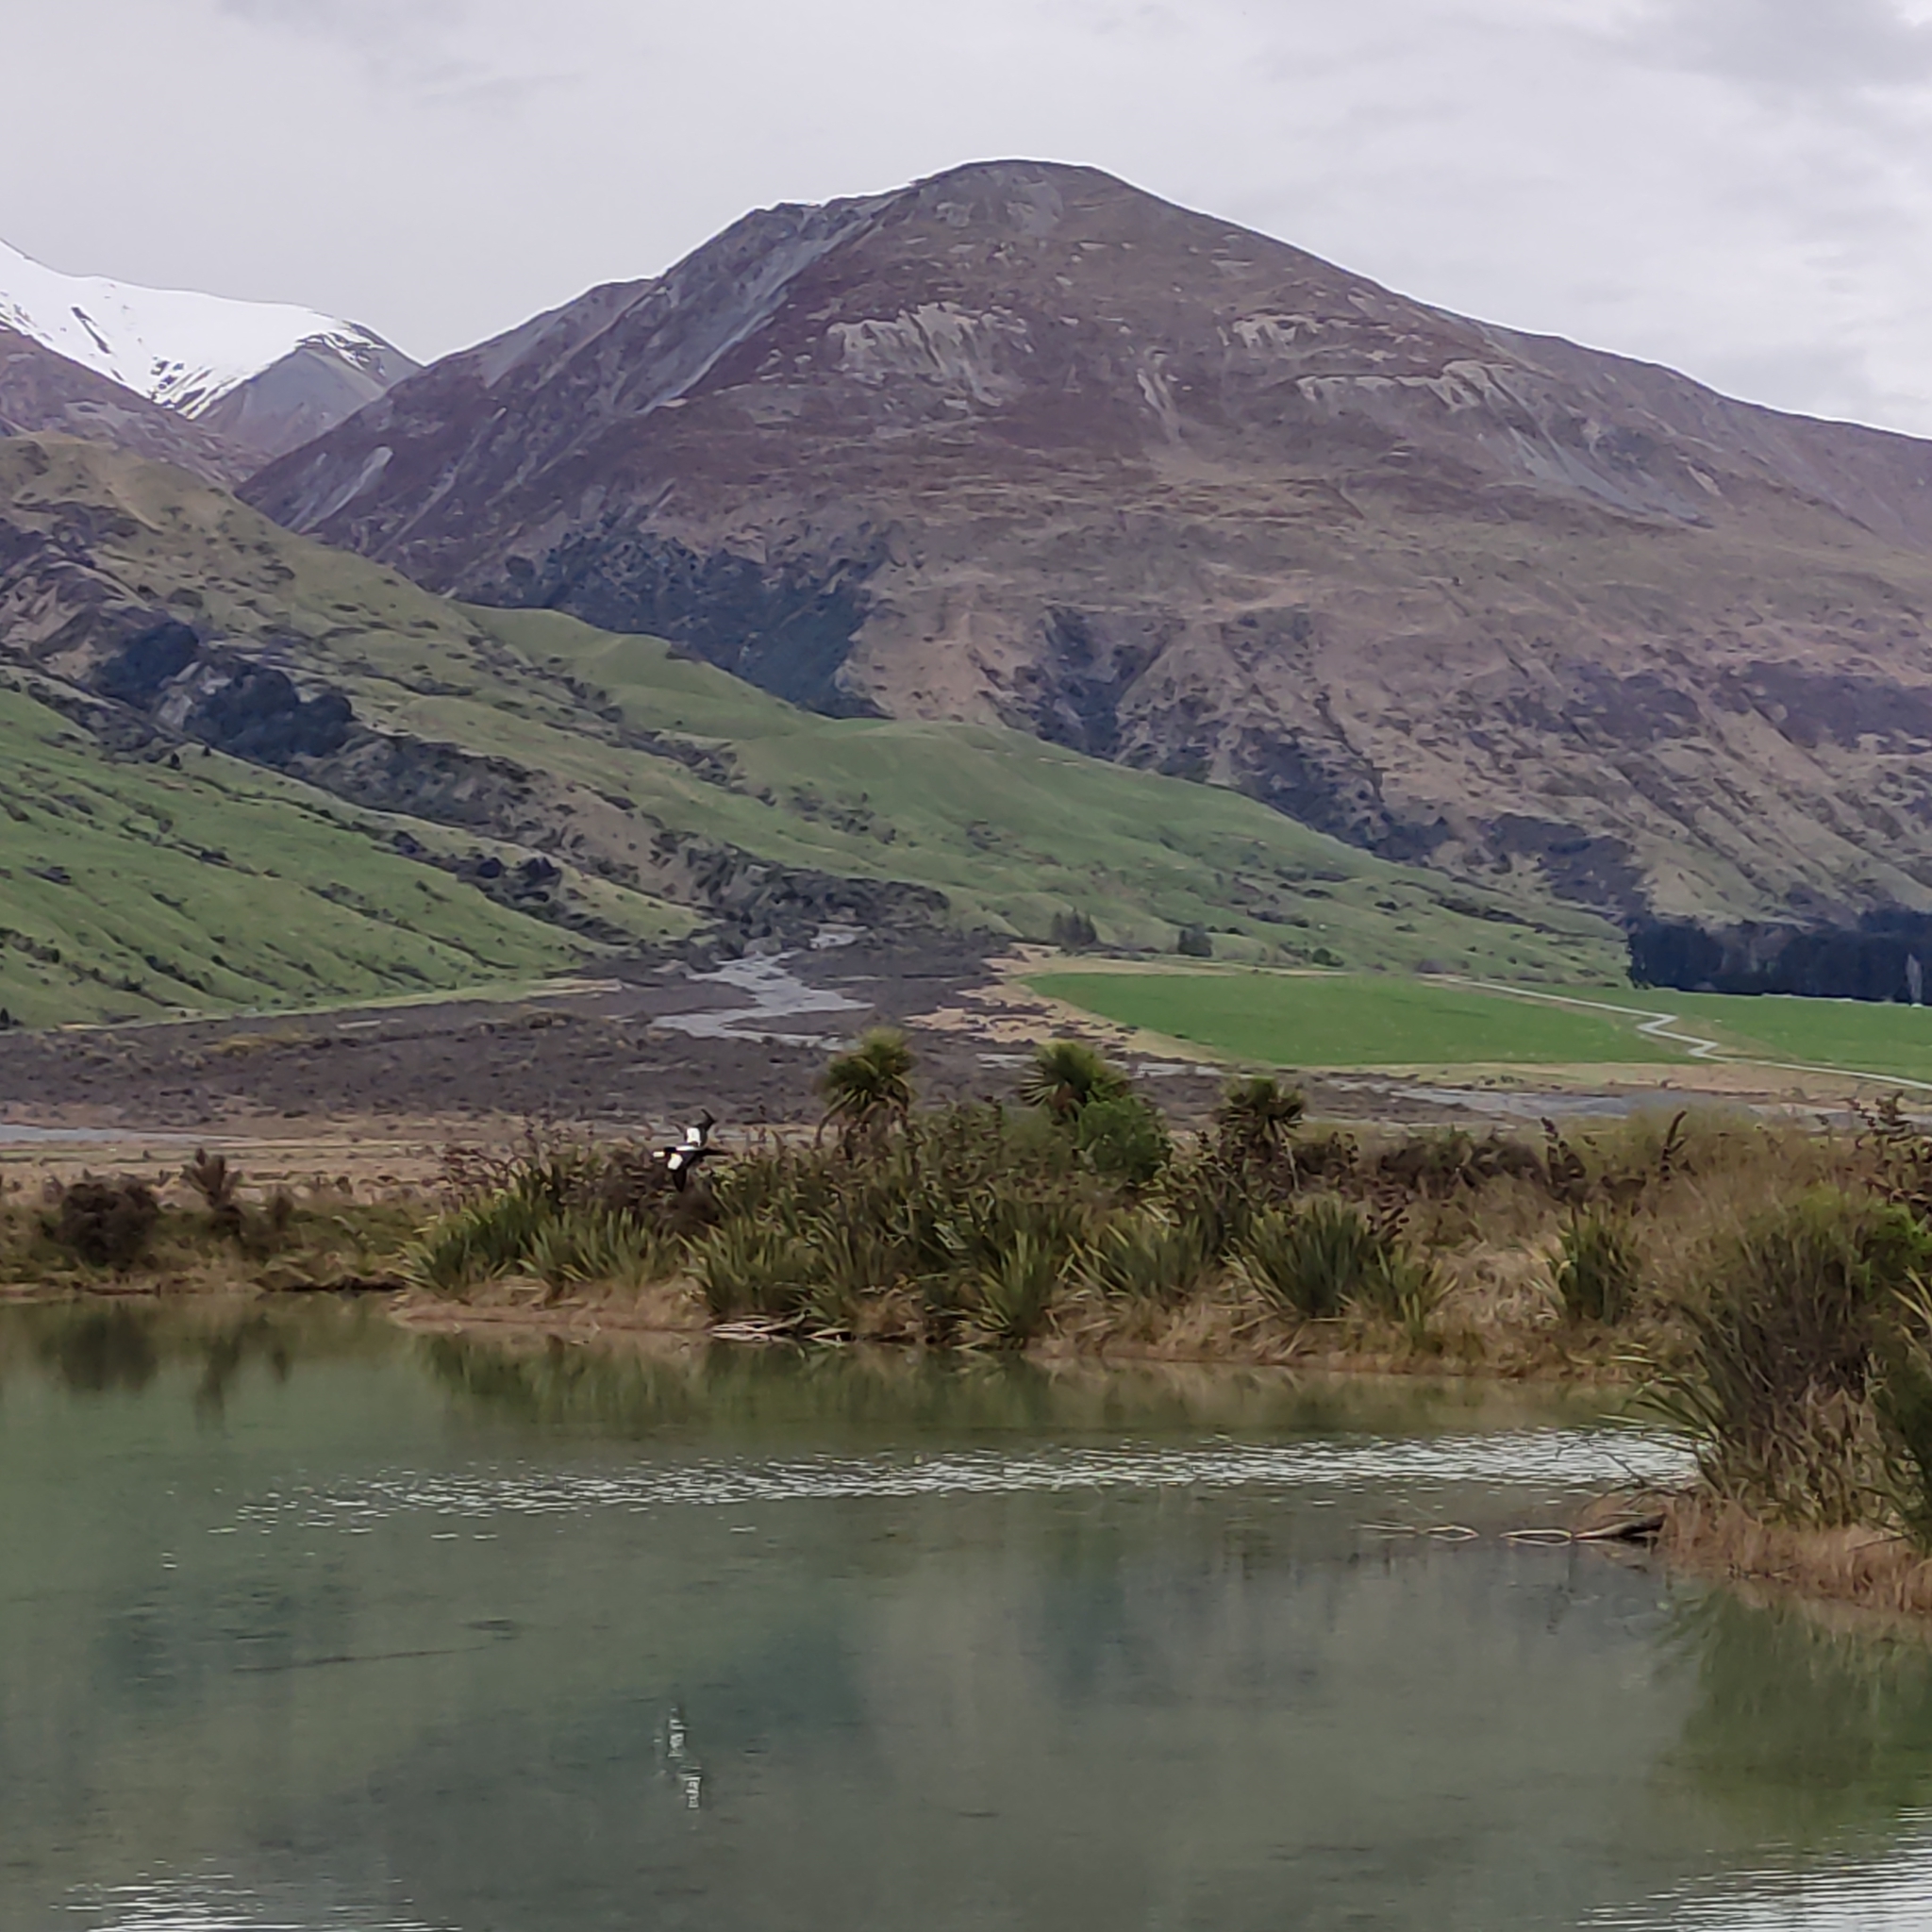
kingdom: Animalia
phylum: Chordata
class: Aves
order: Anseriformes
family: Anatidae
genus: Tadorna
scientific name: Tadorna variegata
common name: Paradise shelduck
